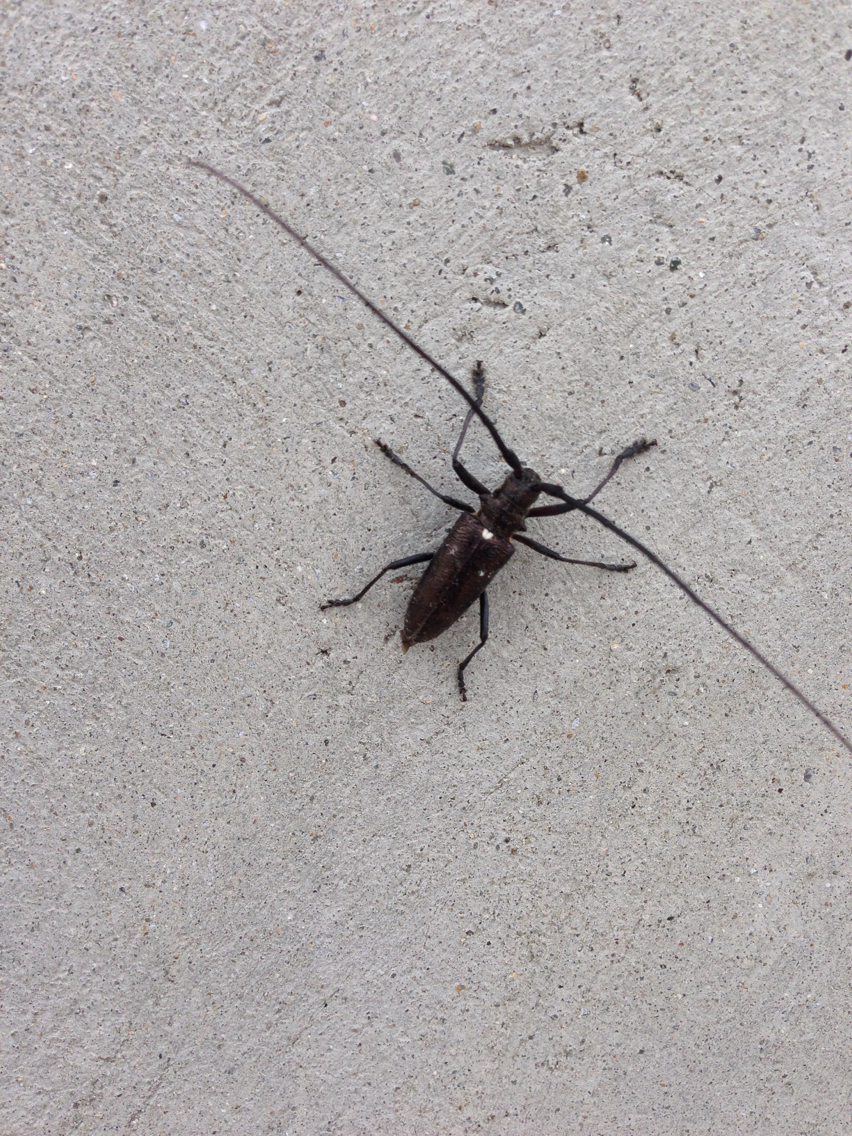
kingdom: Animalia
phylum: Arthropoda
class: Insecta
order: Coleoptera
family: Cerambycidae
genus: Monochamus
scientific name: Monochamus scutellatus
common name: White-spotted sawyer beetle
